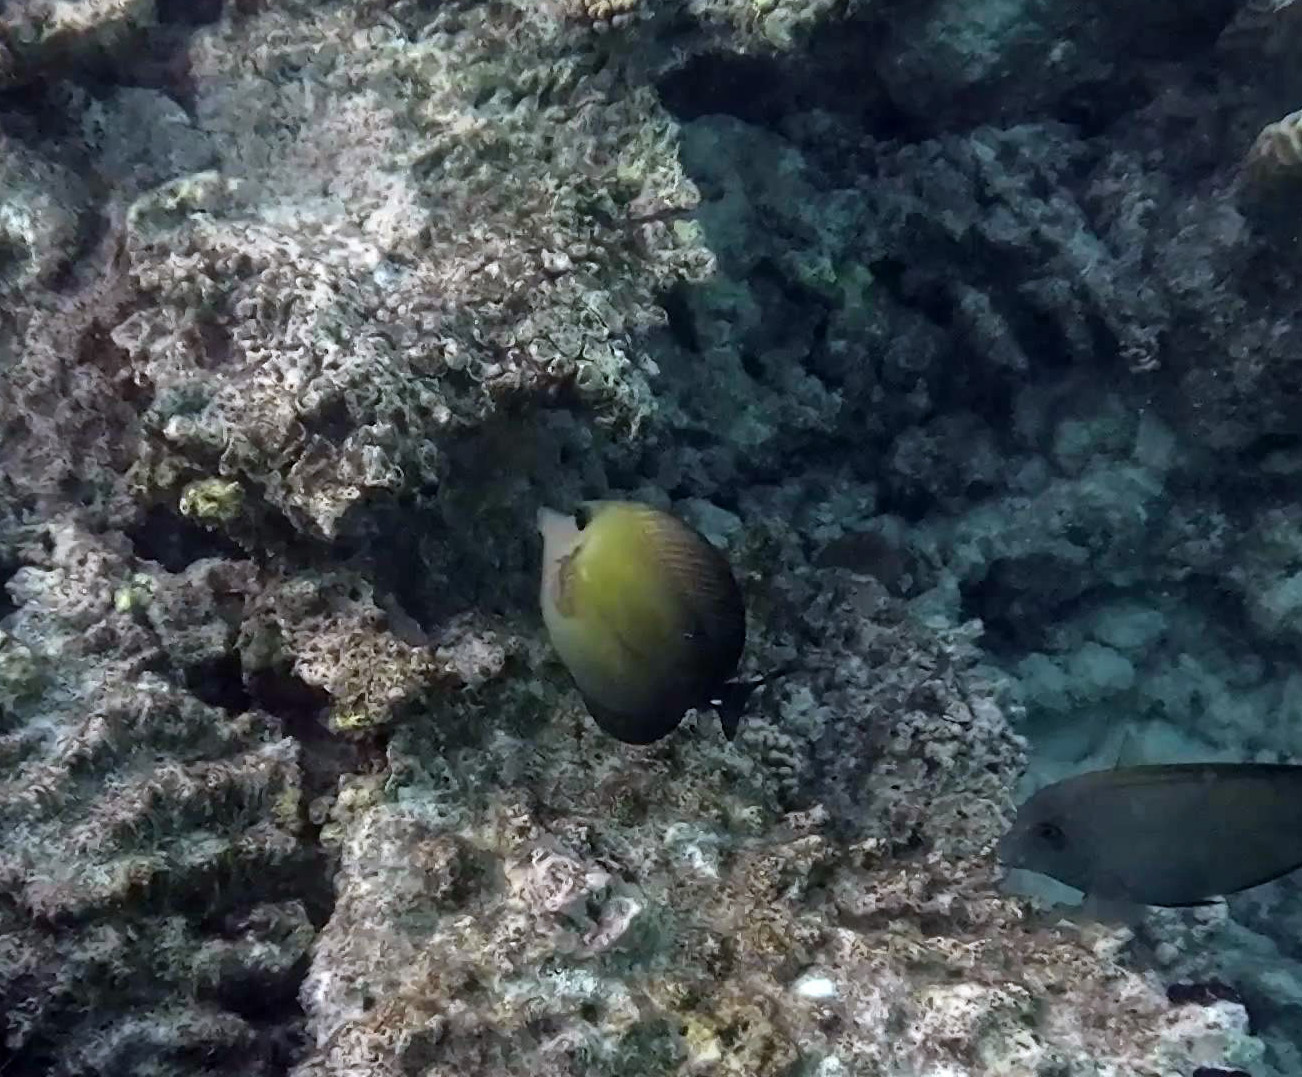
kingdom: Animalia
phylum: Chordata
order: Perciformes
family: Acanthuridae
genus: Zebrasoma
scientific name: Zebrasoma scopas
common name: Twotone tang
